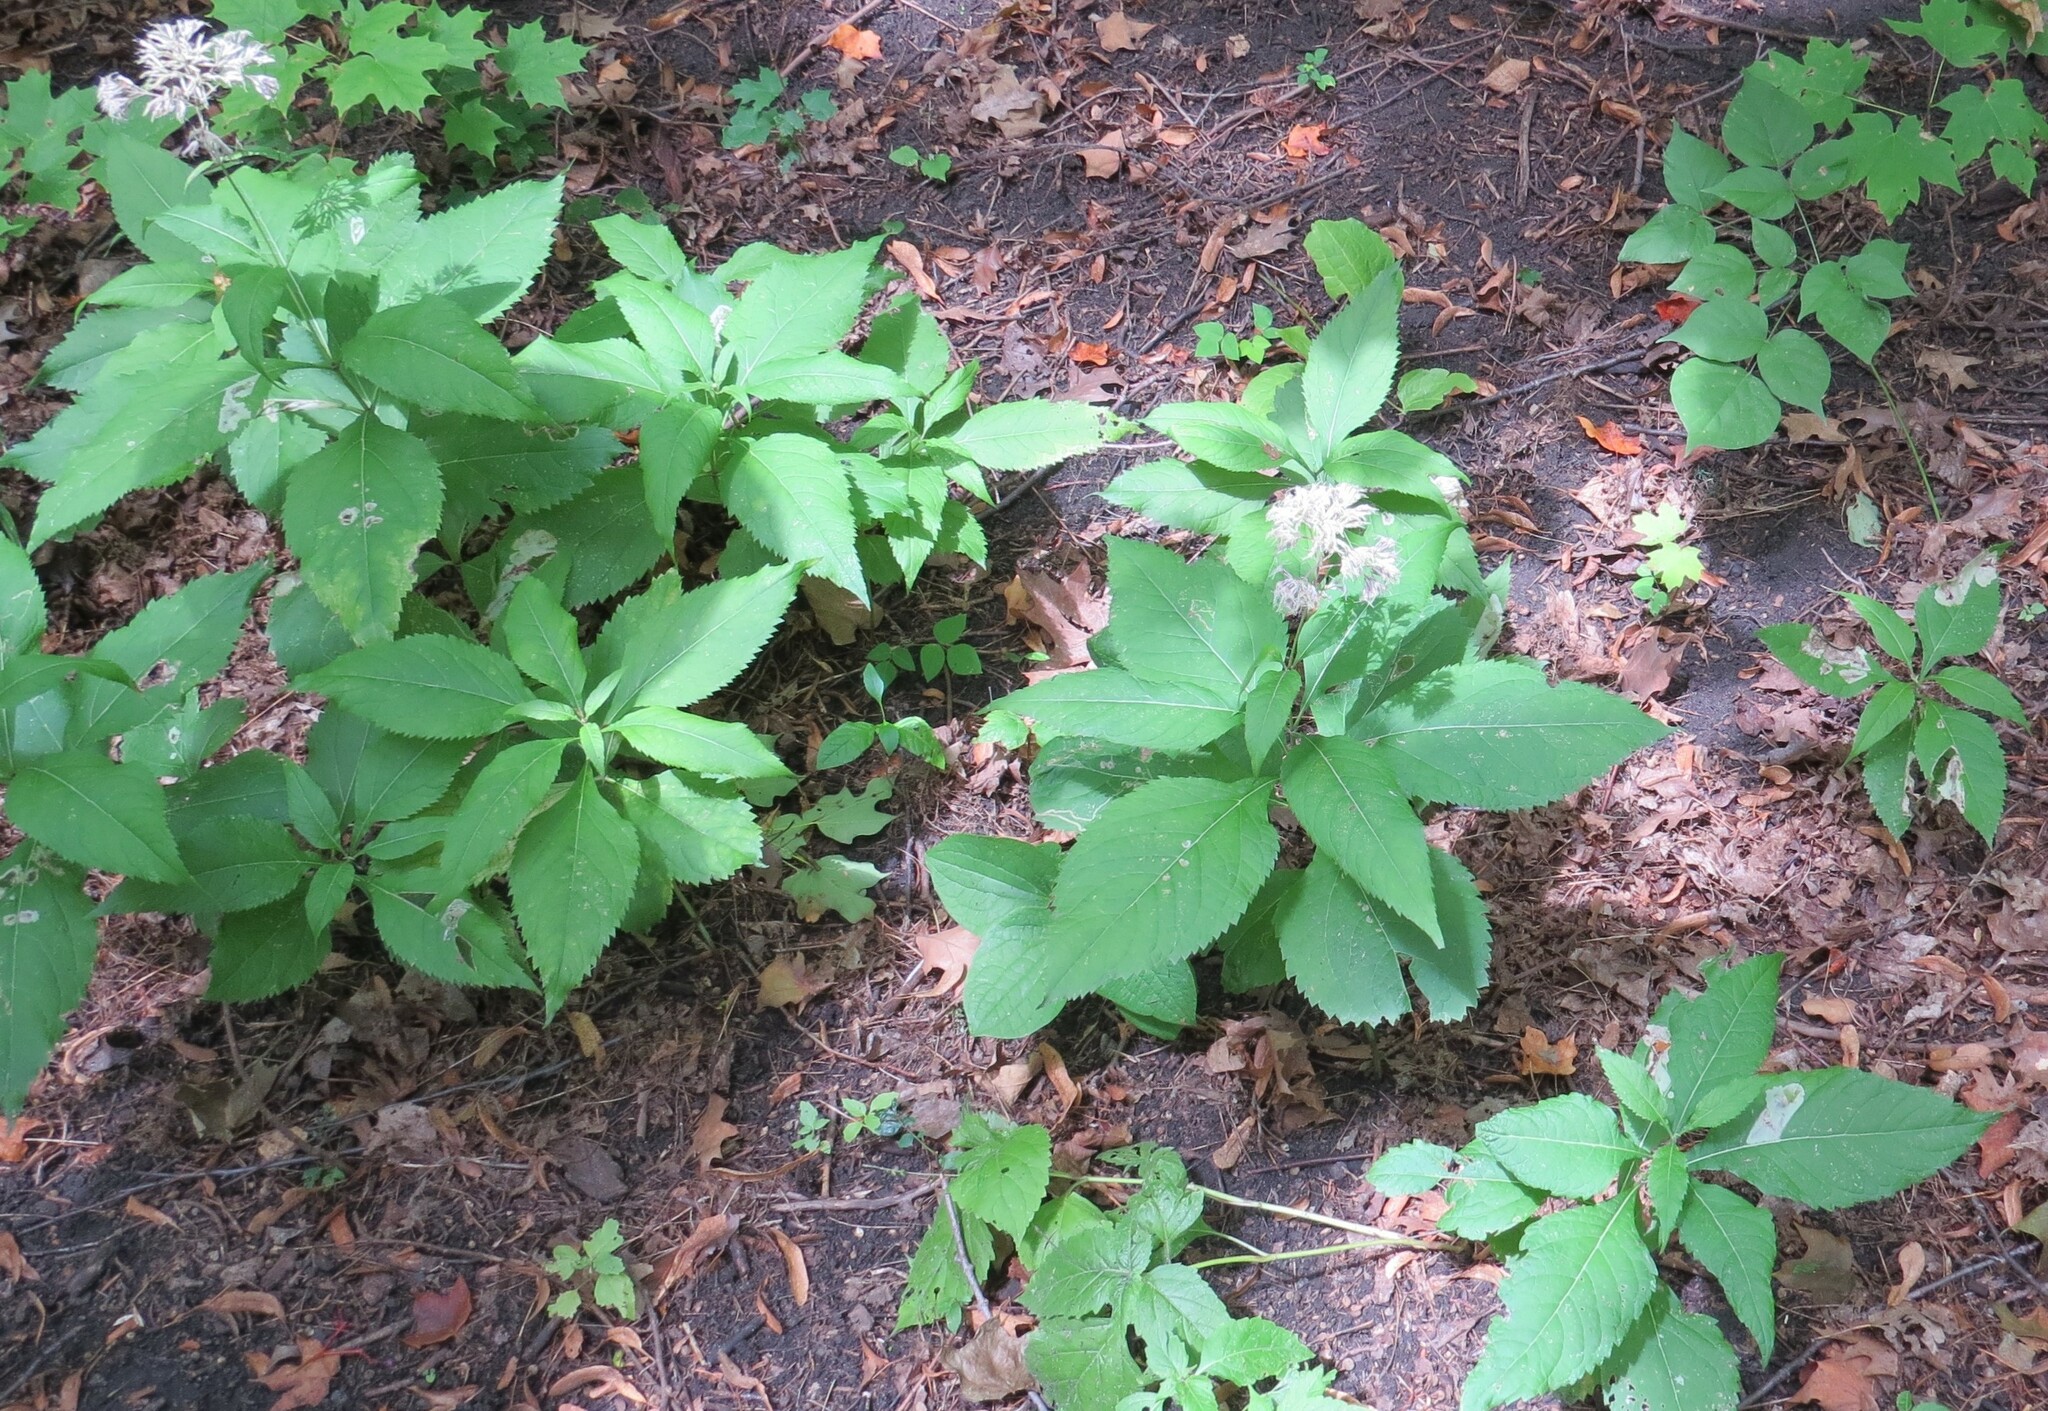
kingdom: Plantae
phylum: Tracheophyta
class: Magnoliopsida
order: Asterales
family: Asteraceae
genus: Eutrochium
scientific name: Eutrochium purpureum
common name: Gravelroot
